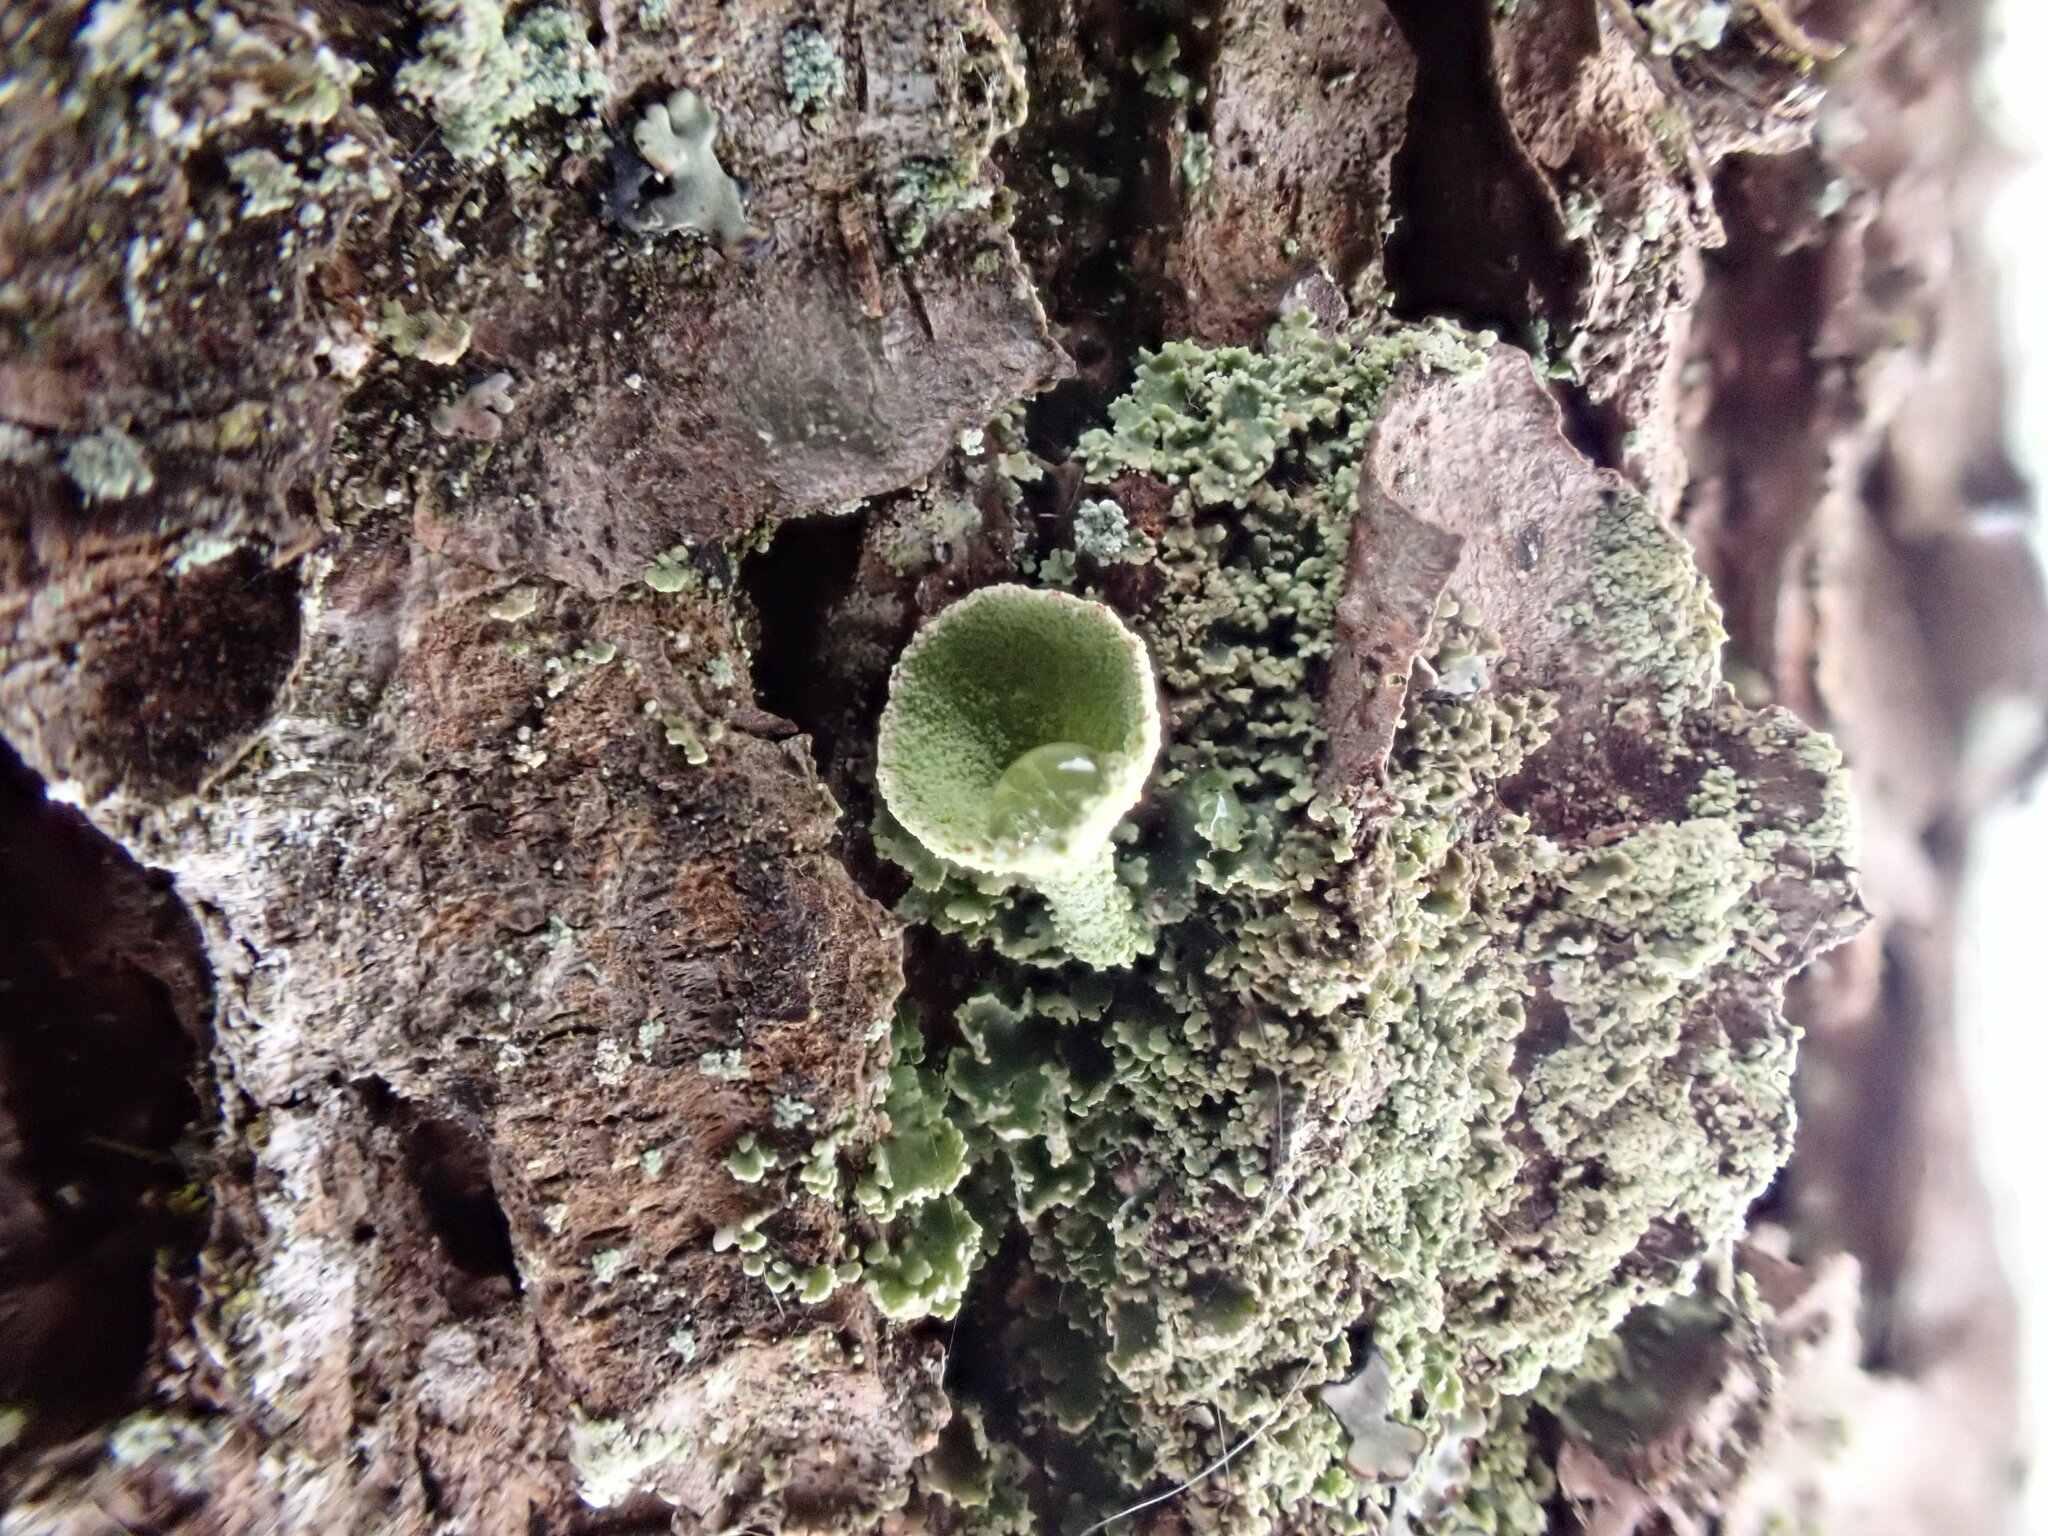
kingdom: Fungi
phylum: Ascomycota
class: Lecanoromycetes
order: Lecanorales
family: Cladoniaceae
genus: Cladonia
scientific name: Cladonia fimbriata
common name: Powdered trumpet lichen
